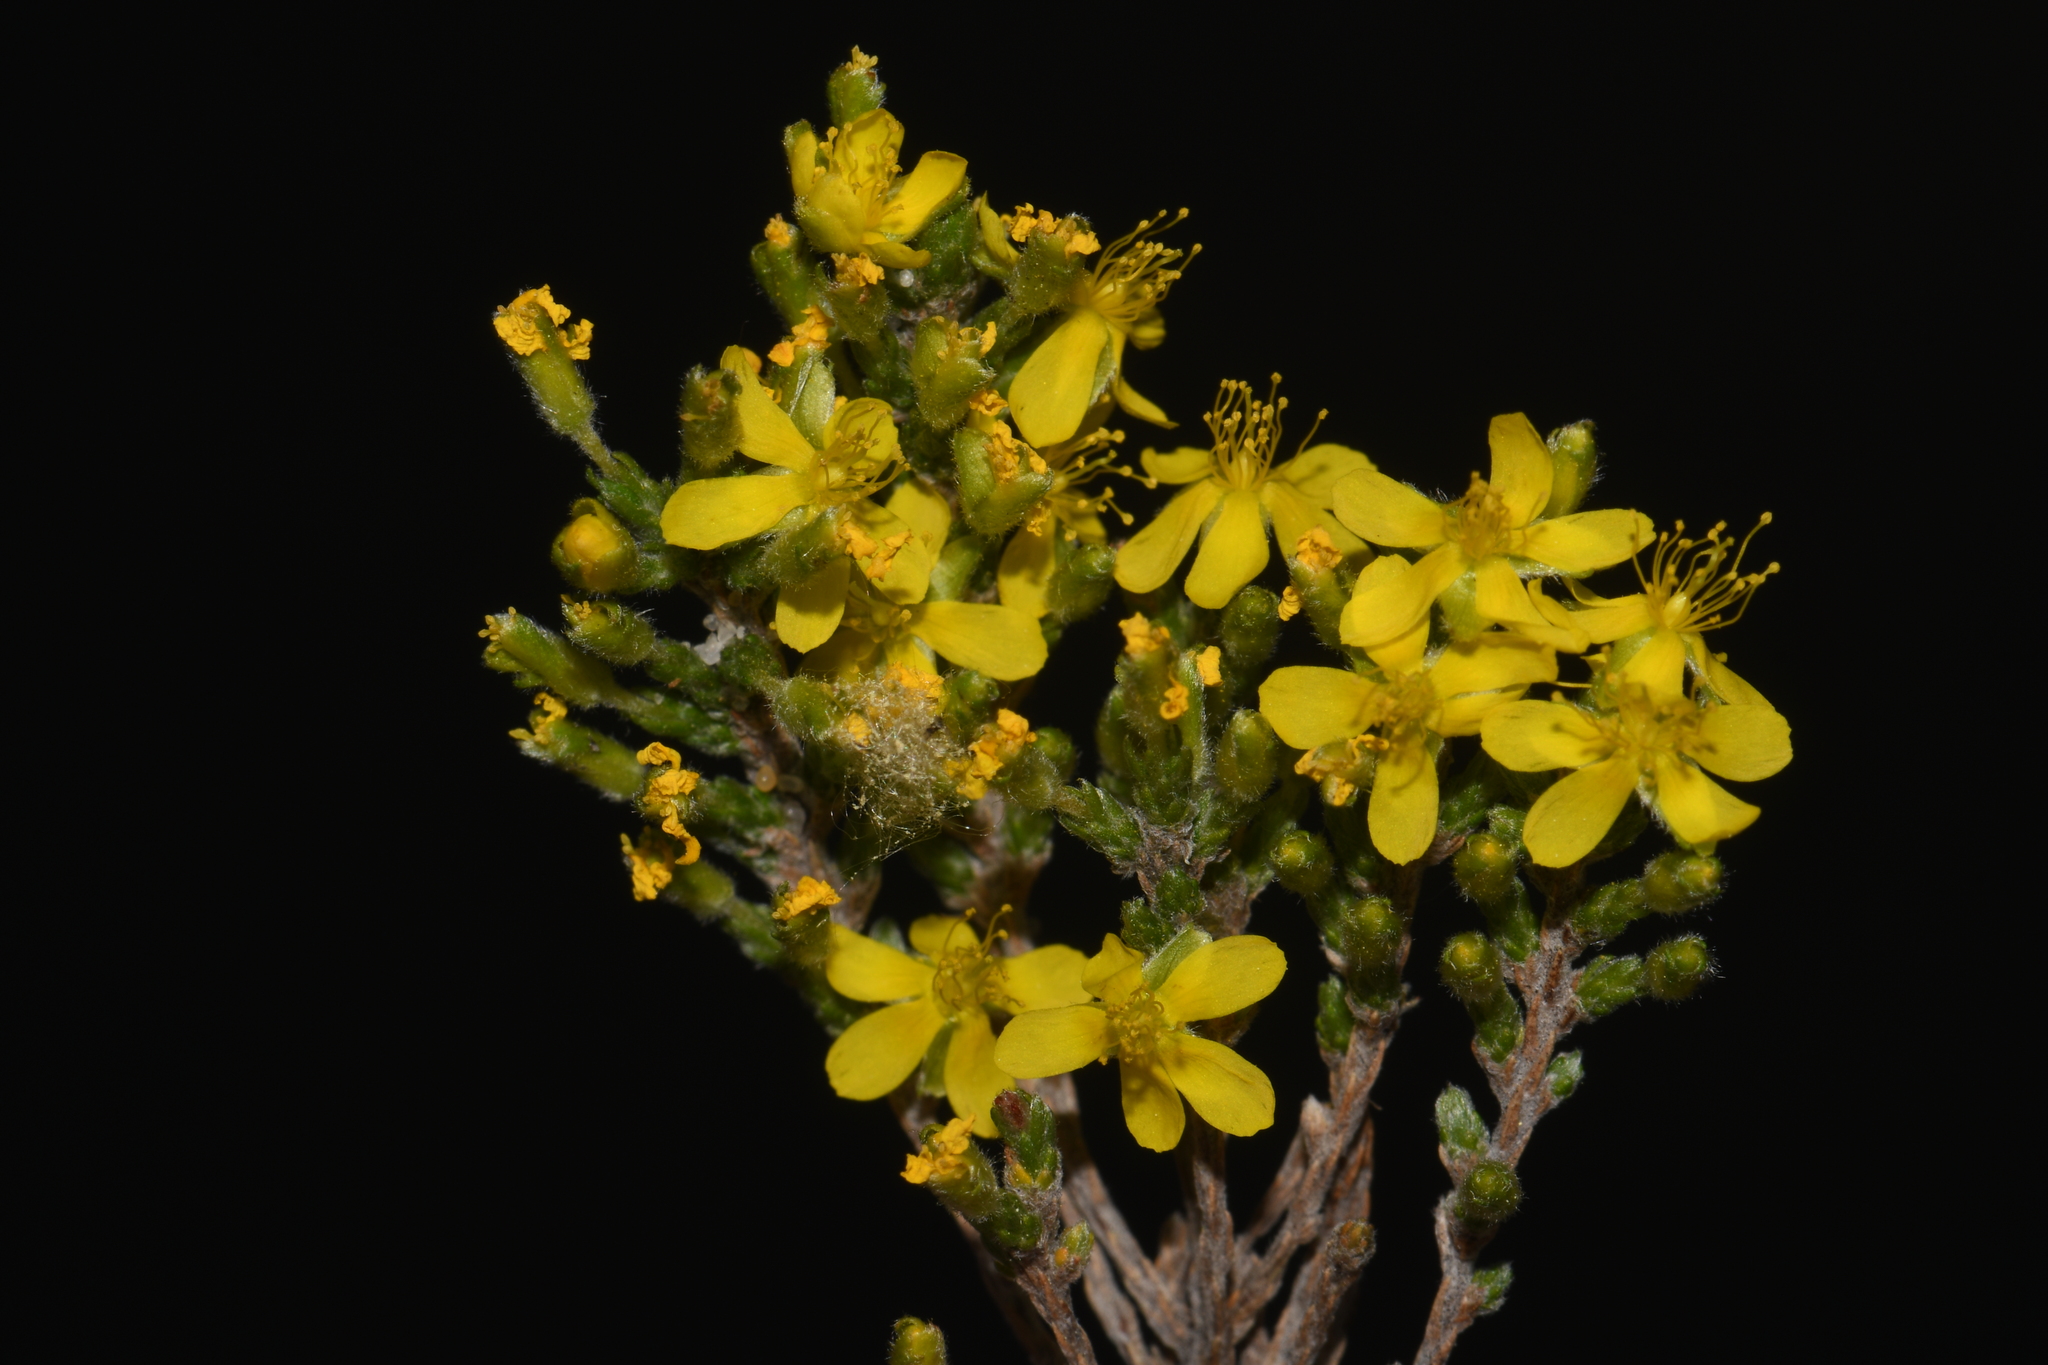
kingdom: Plantae
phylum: Tracheophyta
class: Magnoliopsida
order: Malvales
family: Cistaceae
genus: Hudsonia
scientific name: Hudsonia tomentosa
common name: Beach-heath
